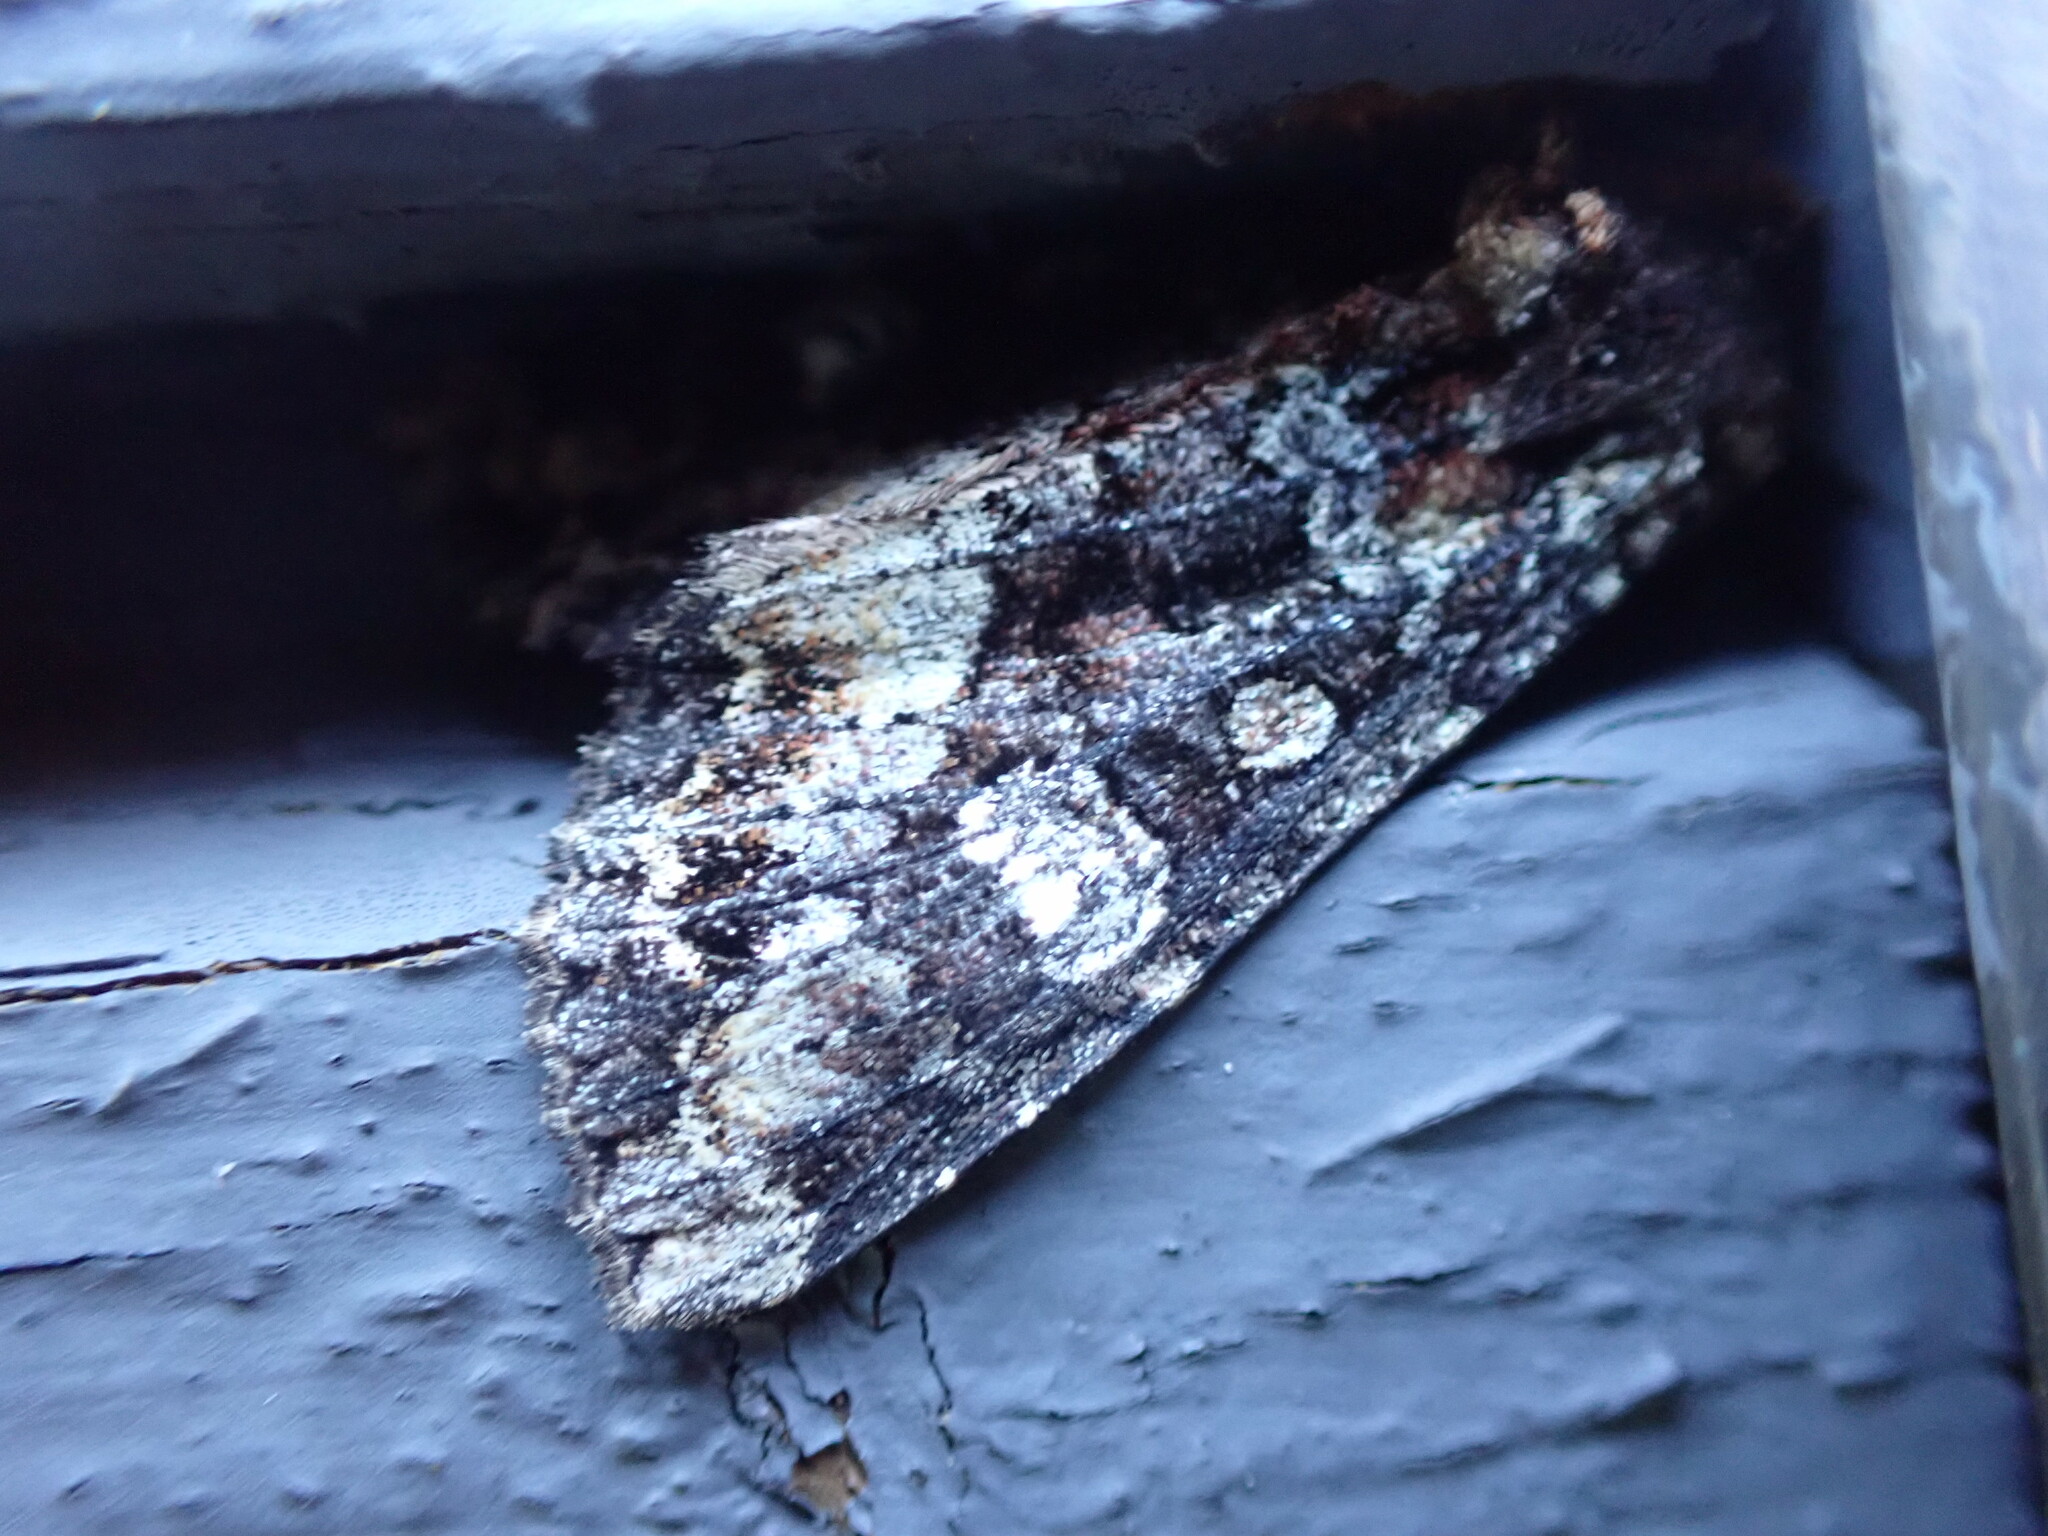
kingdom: Animalia
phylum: Arthropoda
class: Insecta
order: Lepidoptera
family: Noctuidae
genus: Apamea
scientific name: Apamea amputatrix
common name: Yellow-headed cutworm moth
